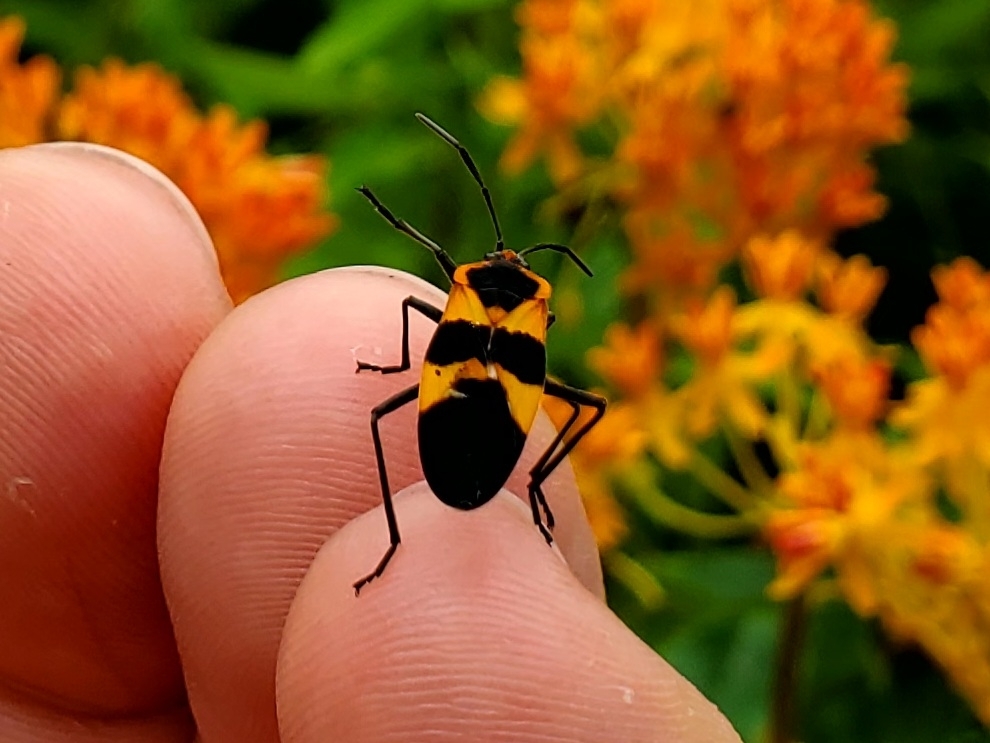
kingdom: Animalia
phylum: Arthropoda
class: Insecta
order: Hemiptera
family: Lygaeidae
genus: Oncopeltus
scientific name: Oncopeltus fasciatus
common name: Large milkweed bug
